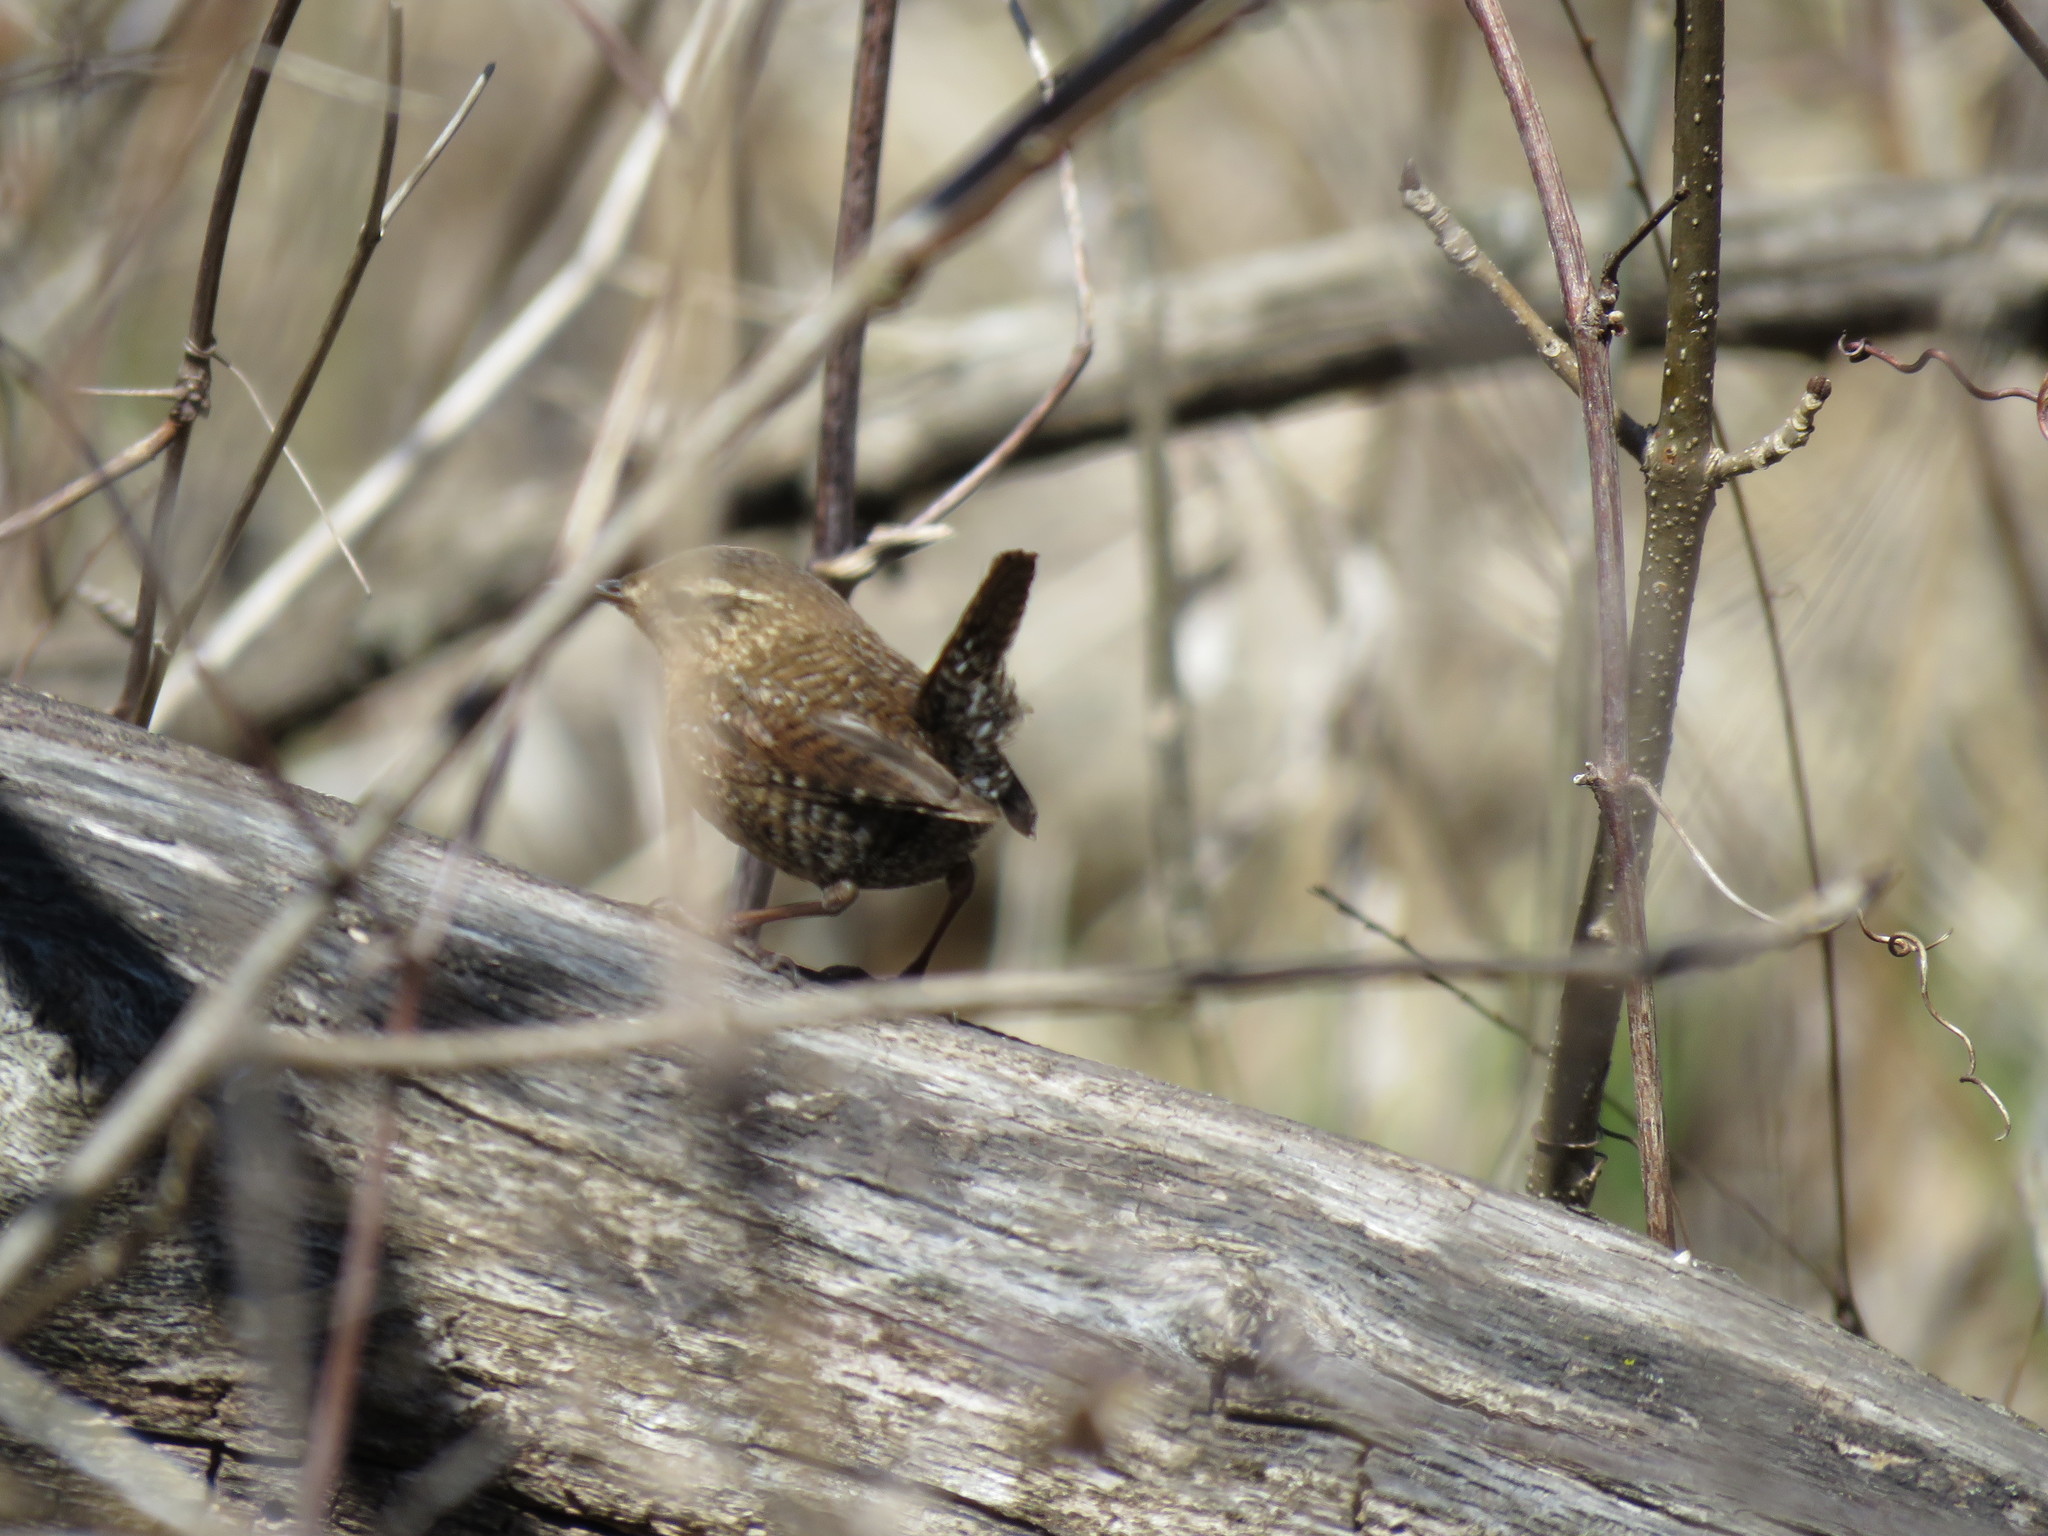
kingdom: Animalia
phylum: Chordata
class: Aves
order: Passeriformes
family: Troglodytidae
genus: Troglodytes
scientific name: Troglodytes hiemalis
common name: Winter wren
